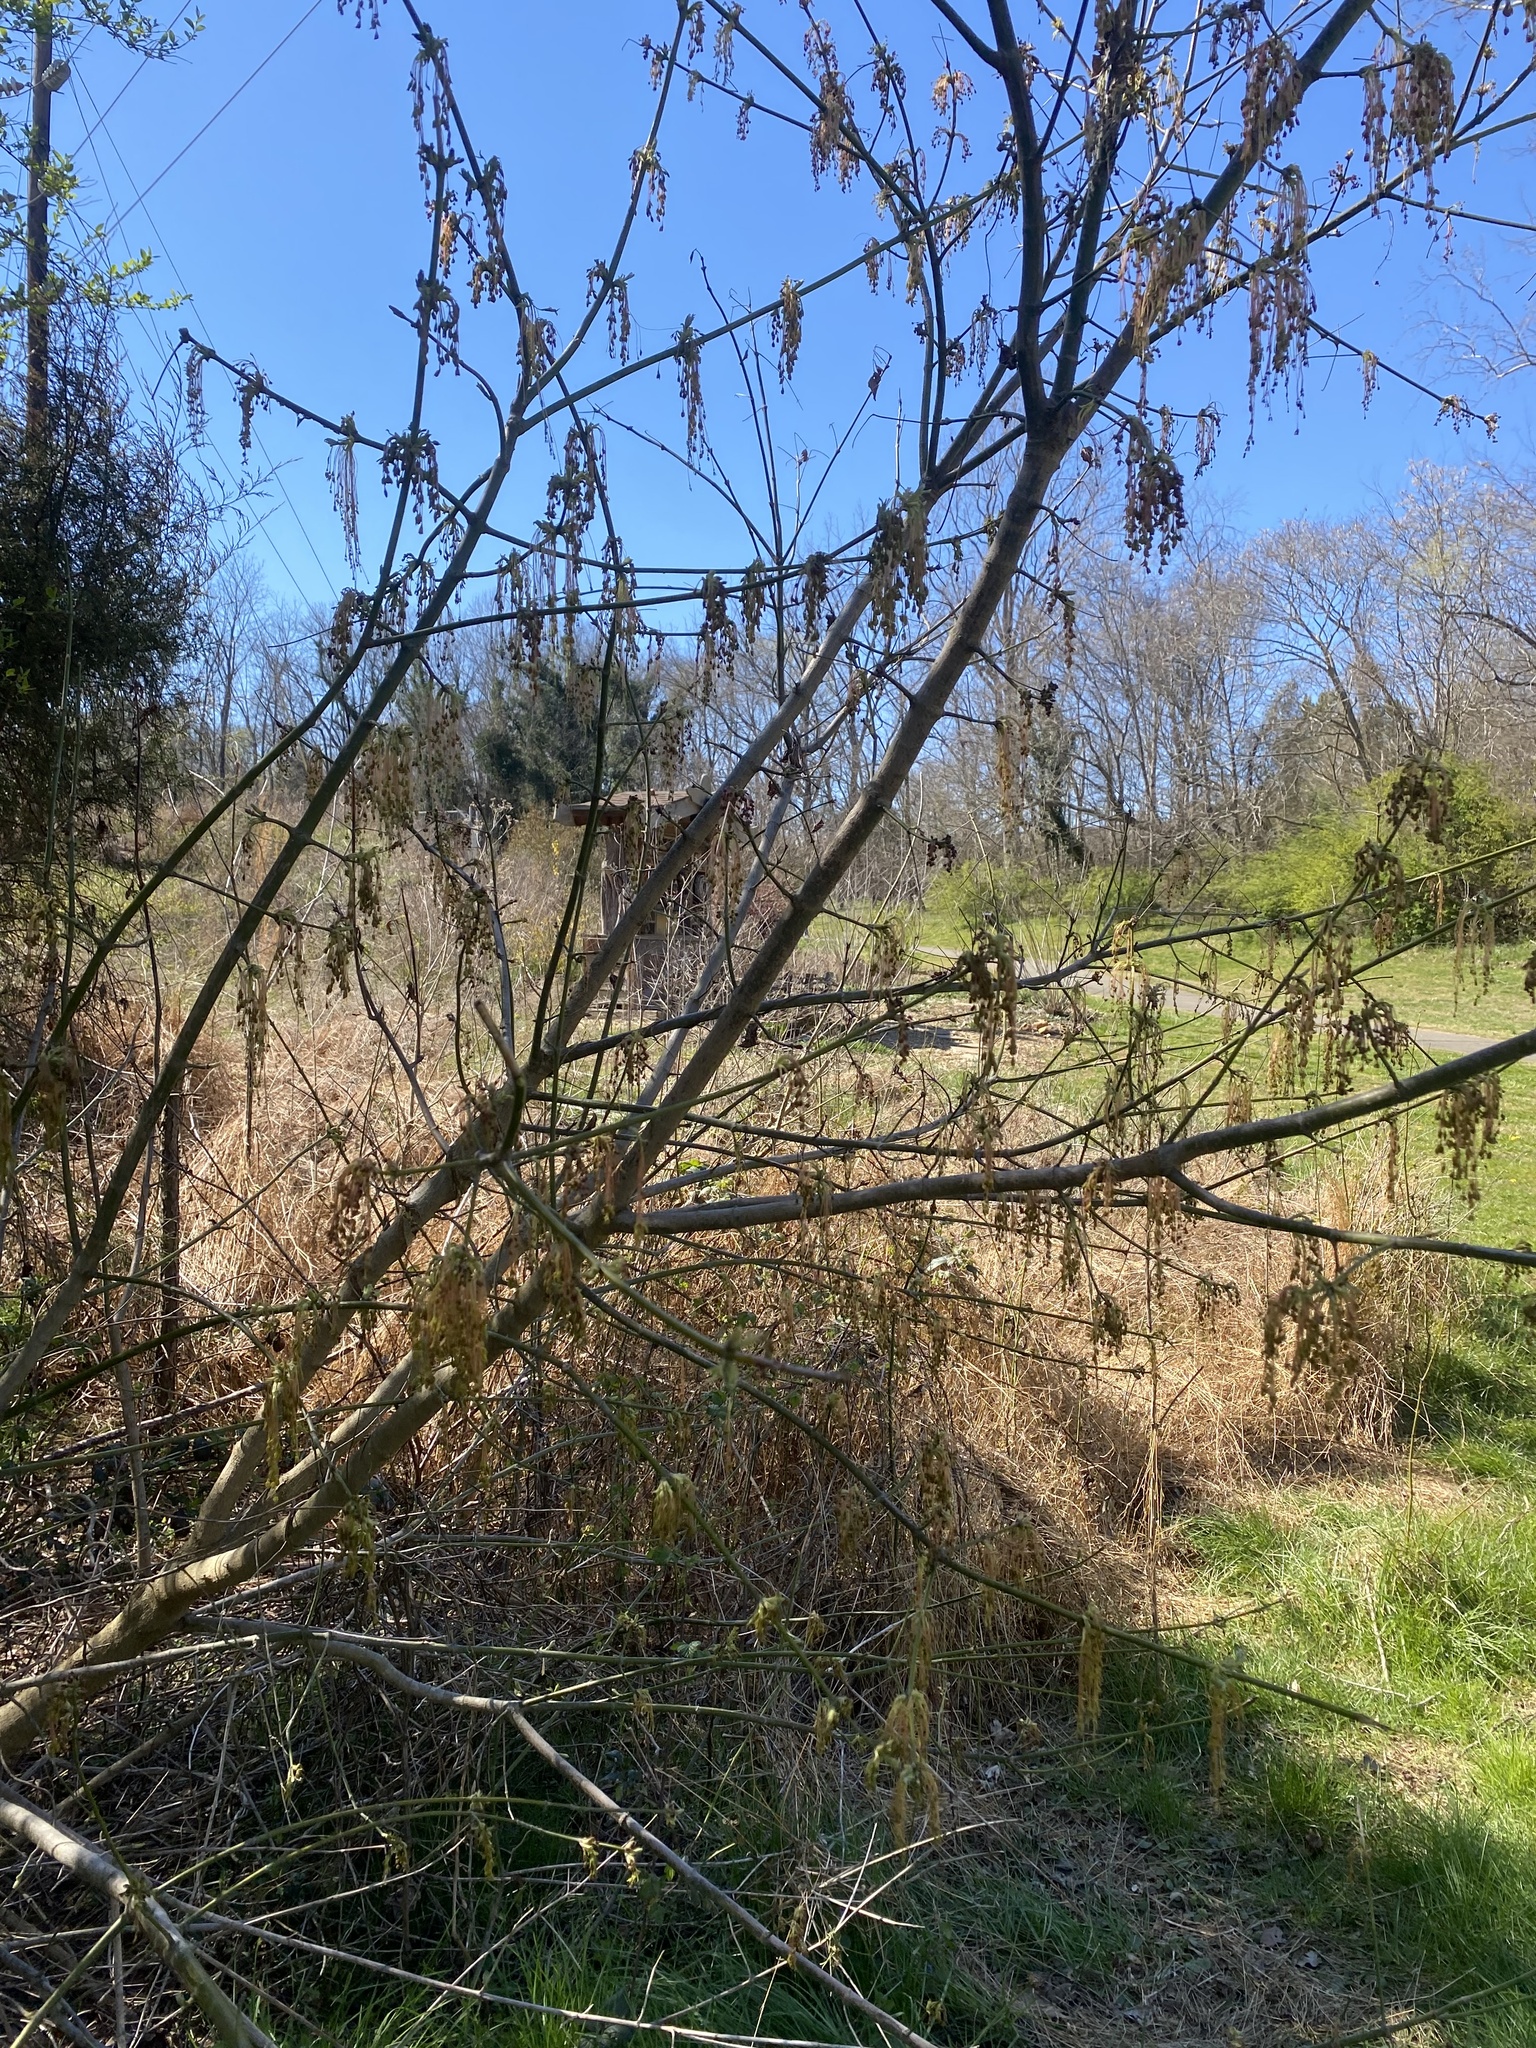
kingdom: Plantae
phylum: Tracheophyta
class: Magnoliopsida
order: Sapindales
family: Sapindaceae
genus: Acer
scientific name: Acer negundo
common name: Ashleaf maple
